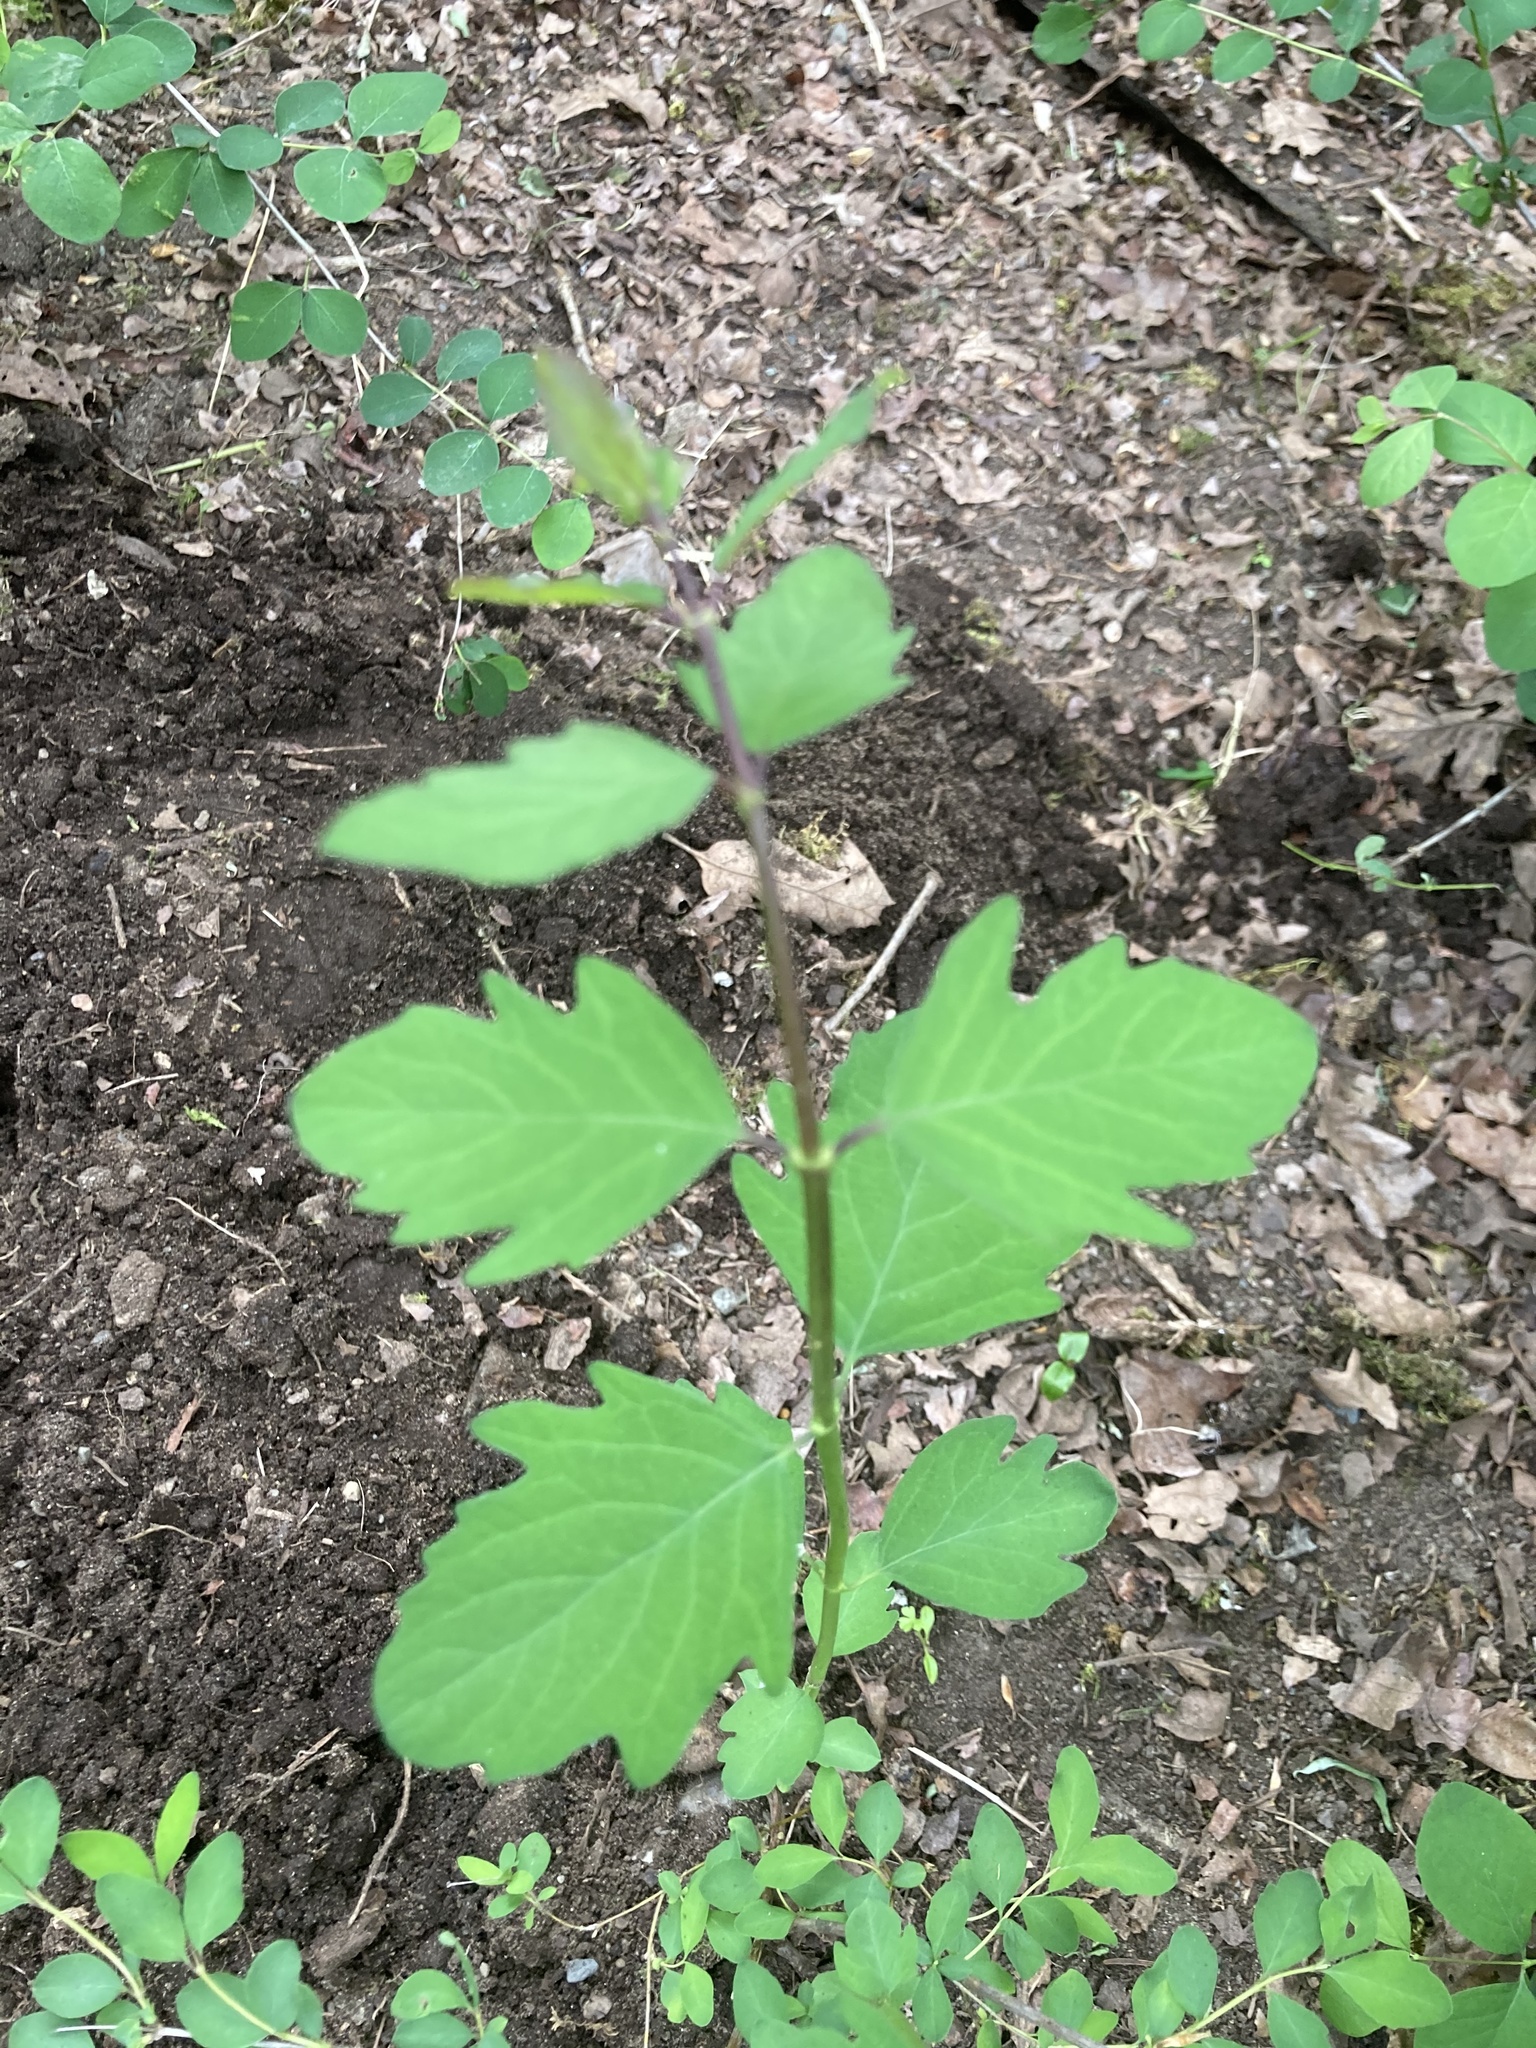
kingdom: Plantae
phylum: Tracheophyta
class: Magnoliopsida
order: Dipsacales
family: Caprifoliaceae
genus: Symphoricarpos
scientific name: Symphoricarpos albus
